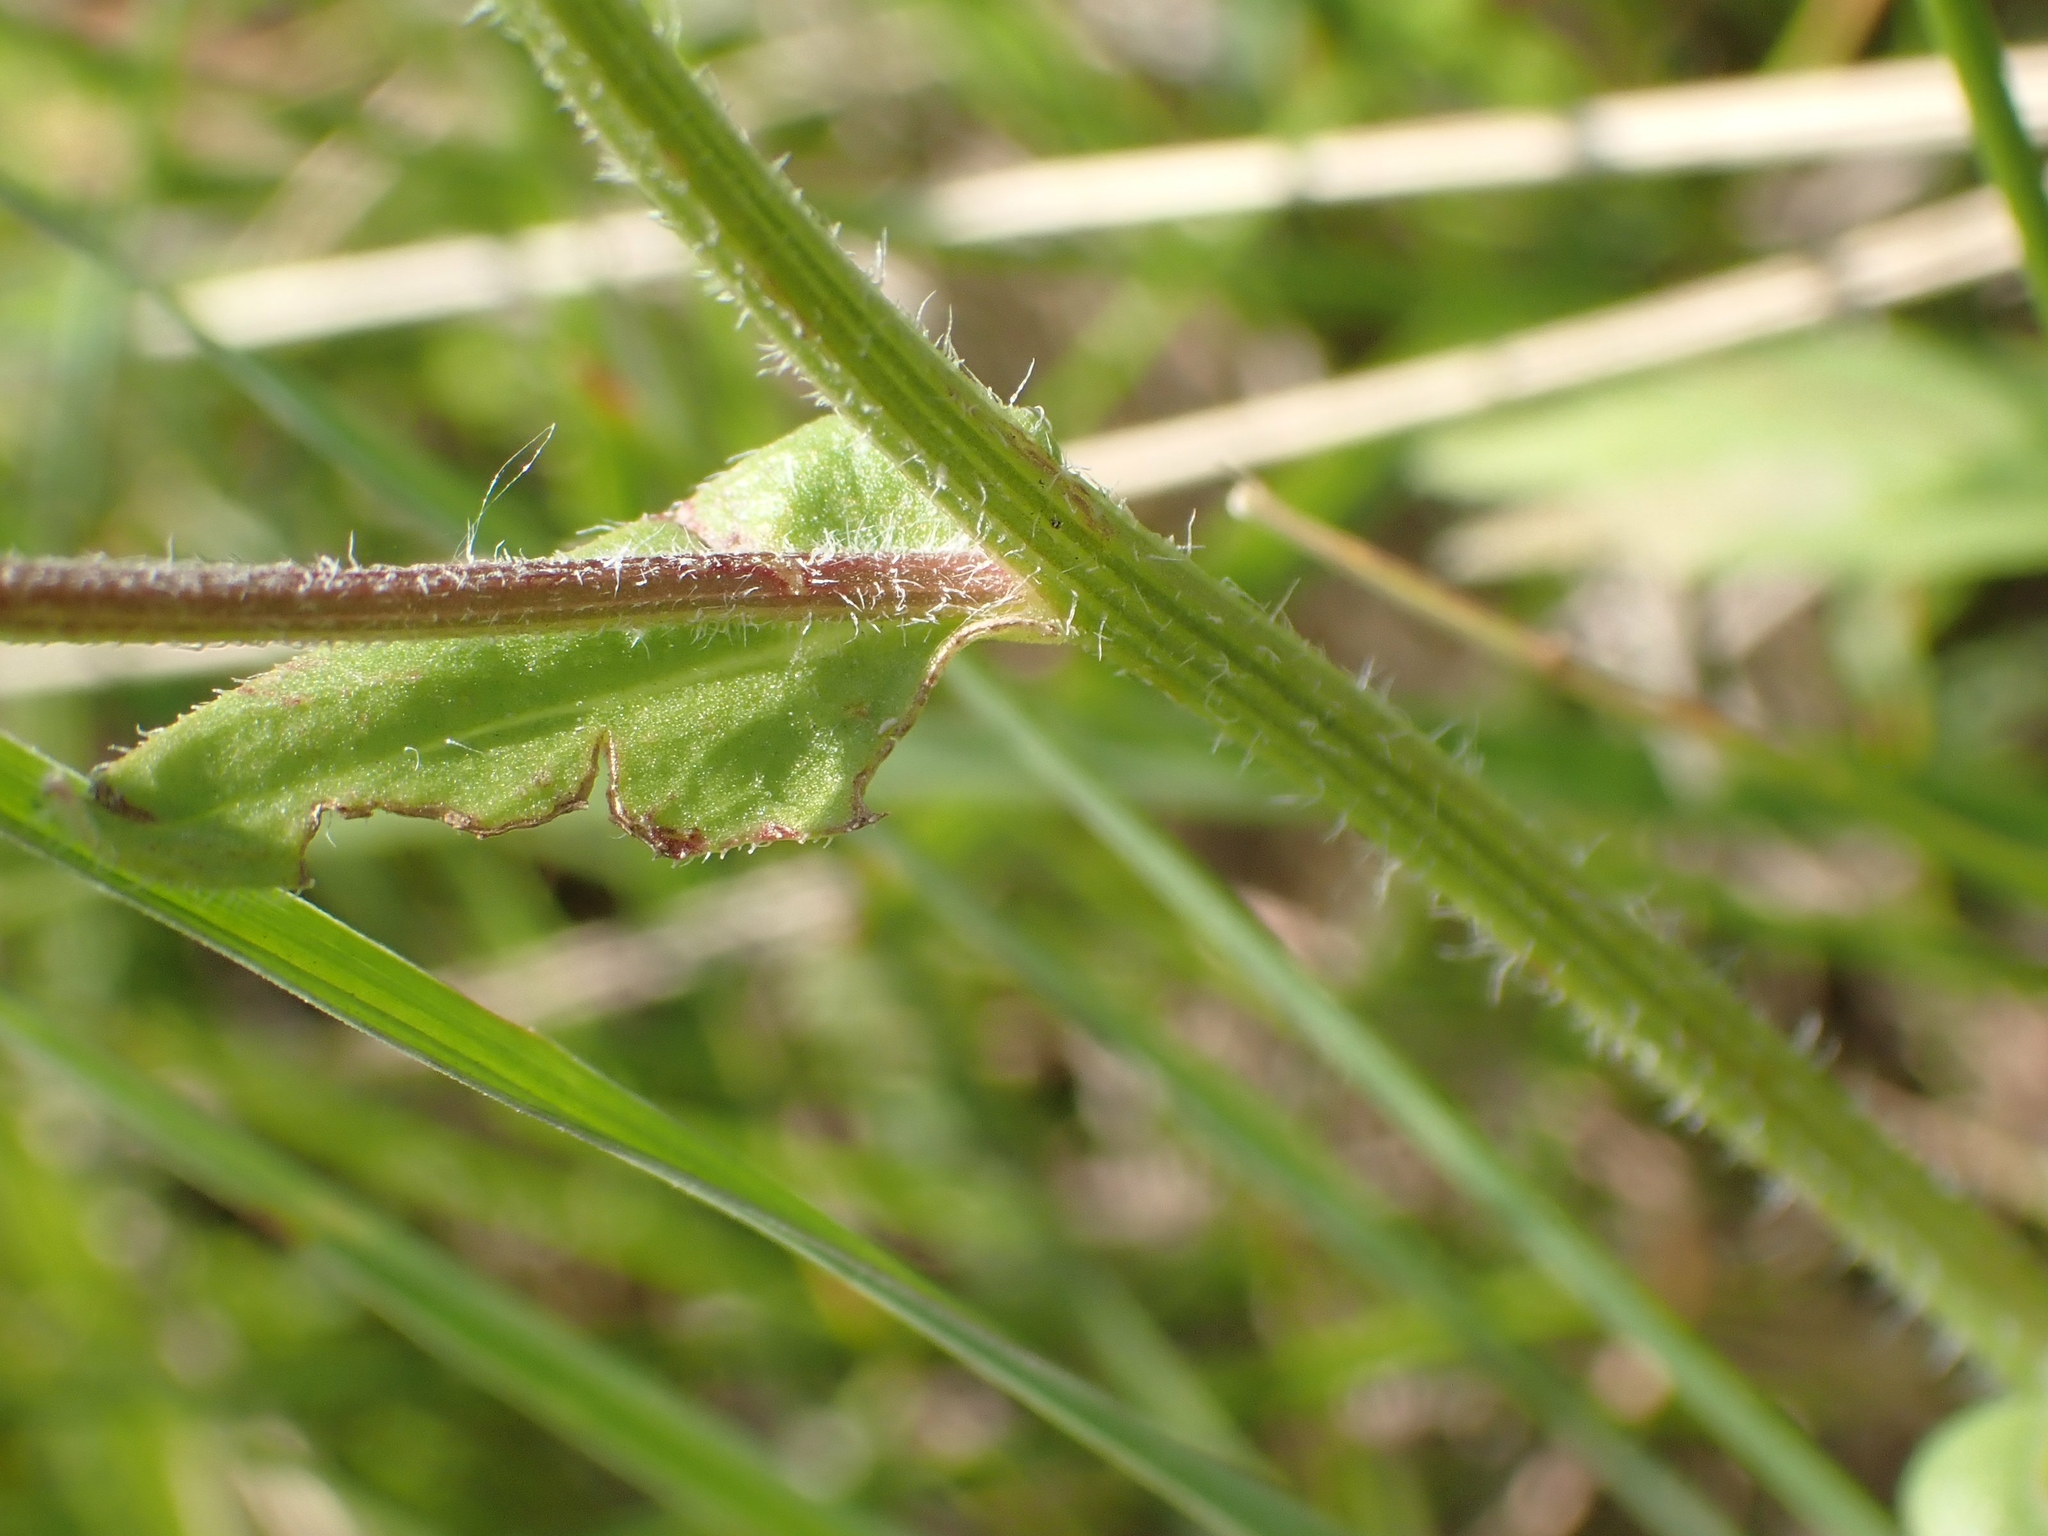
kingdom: Plantae
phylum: Tracheophyta
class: Magnoliopsida
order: Asterales
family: Asteraceae
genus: Erigeron
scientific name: Erigeron strigosus
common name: Common eastern fleabane
